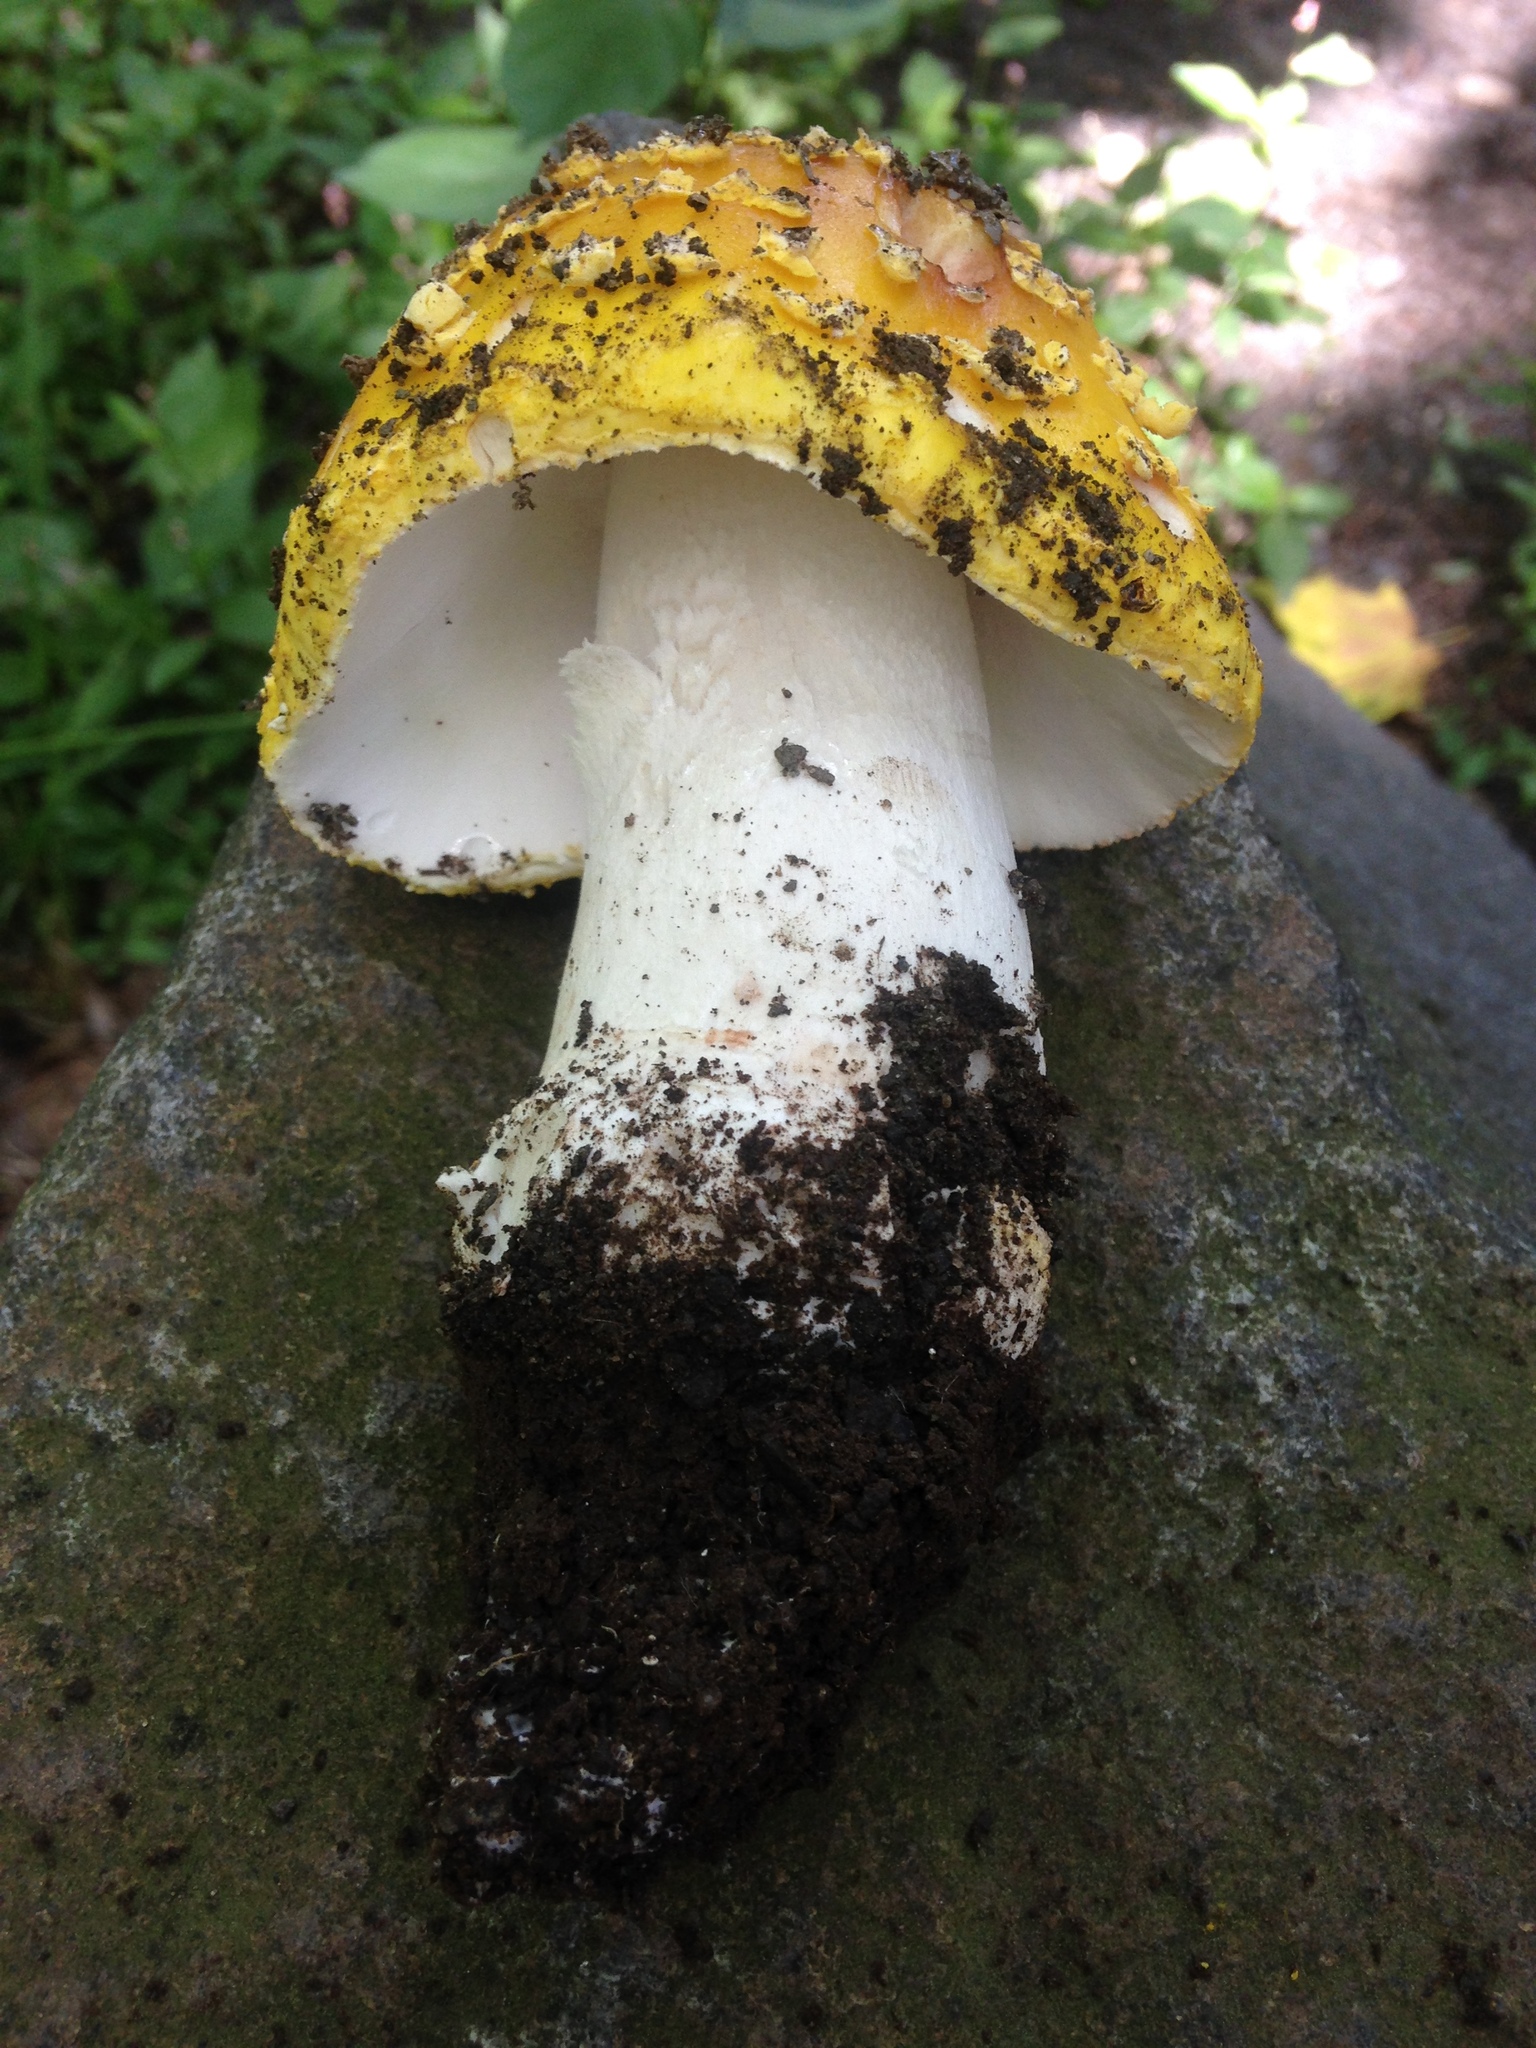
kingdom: Fungi
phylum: Basidiomycota
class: Agaricomycetes
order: Agaricales
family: Amanitaceae
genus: Amanita
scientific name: Amanita flavorubens
